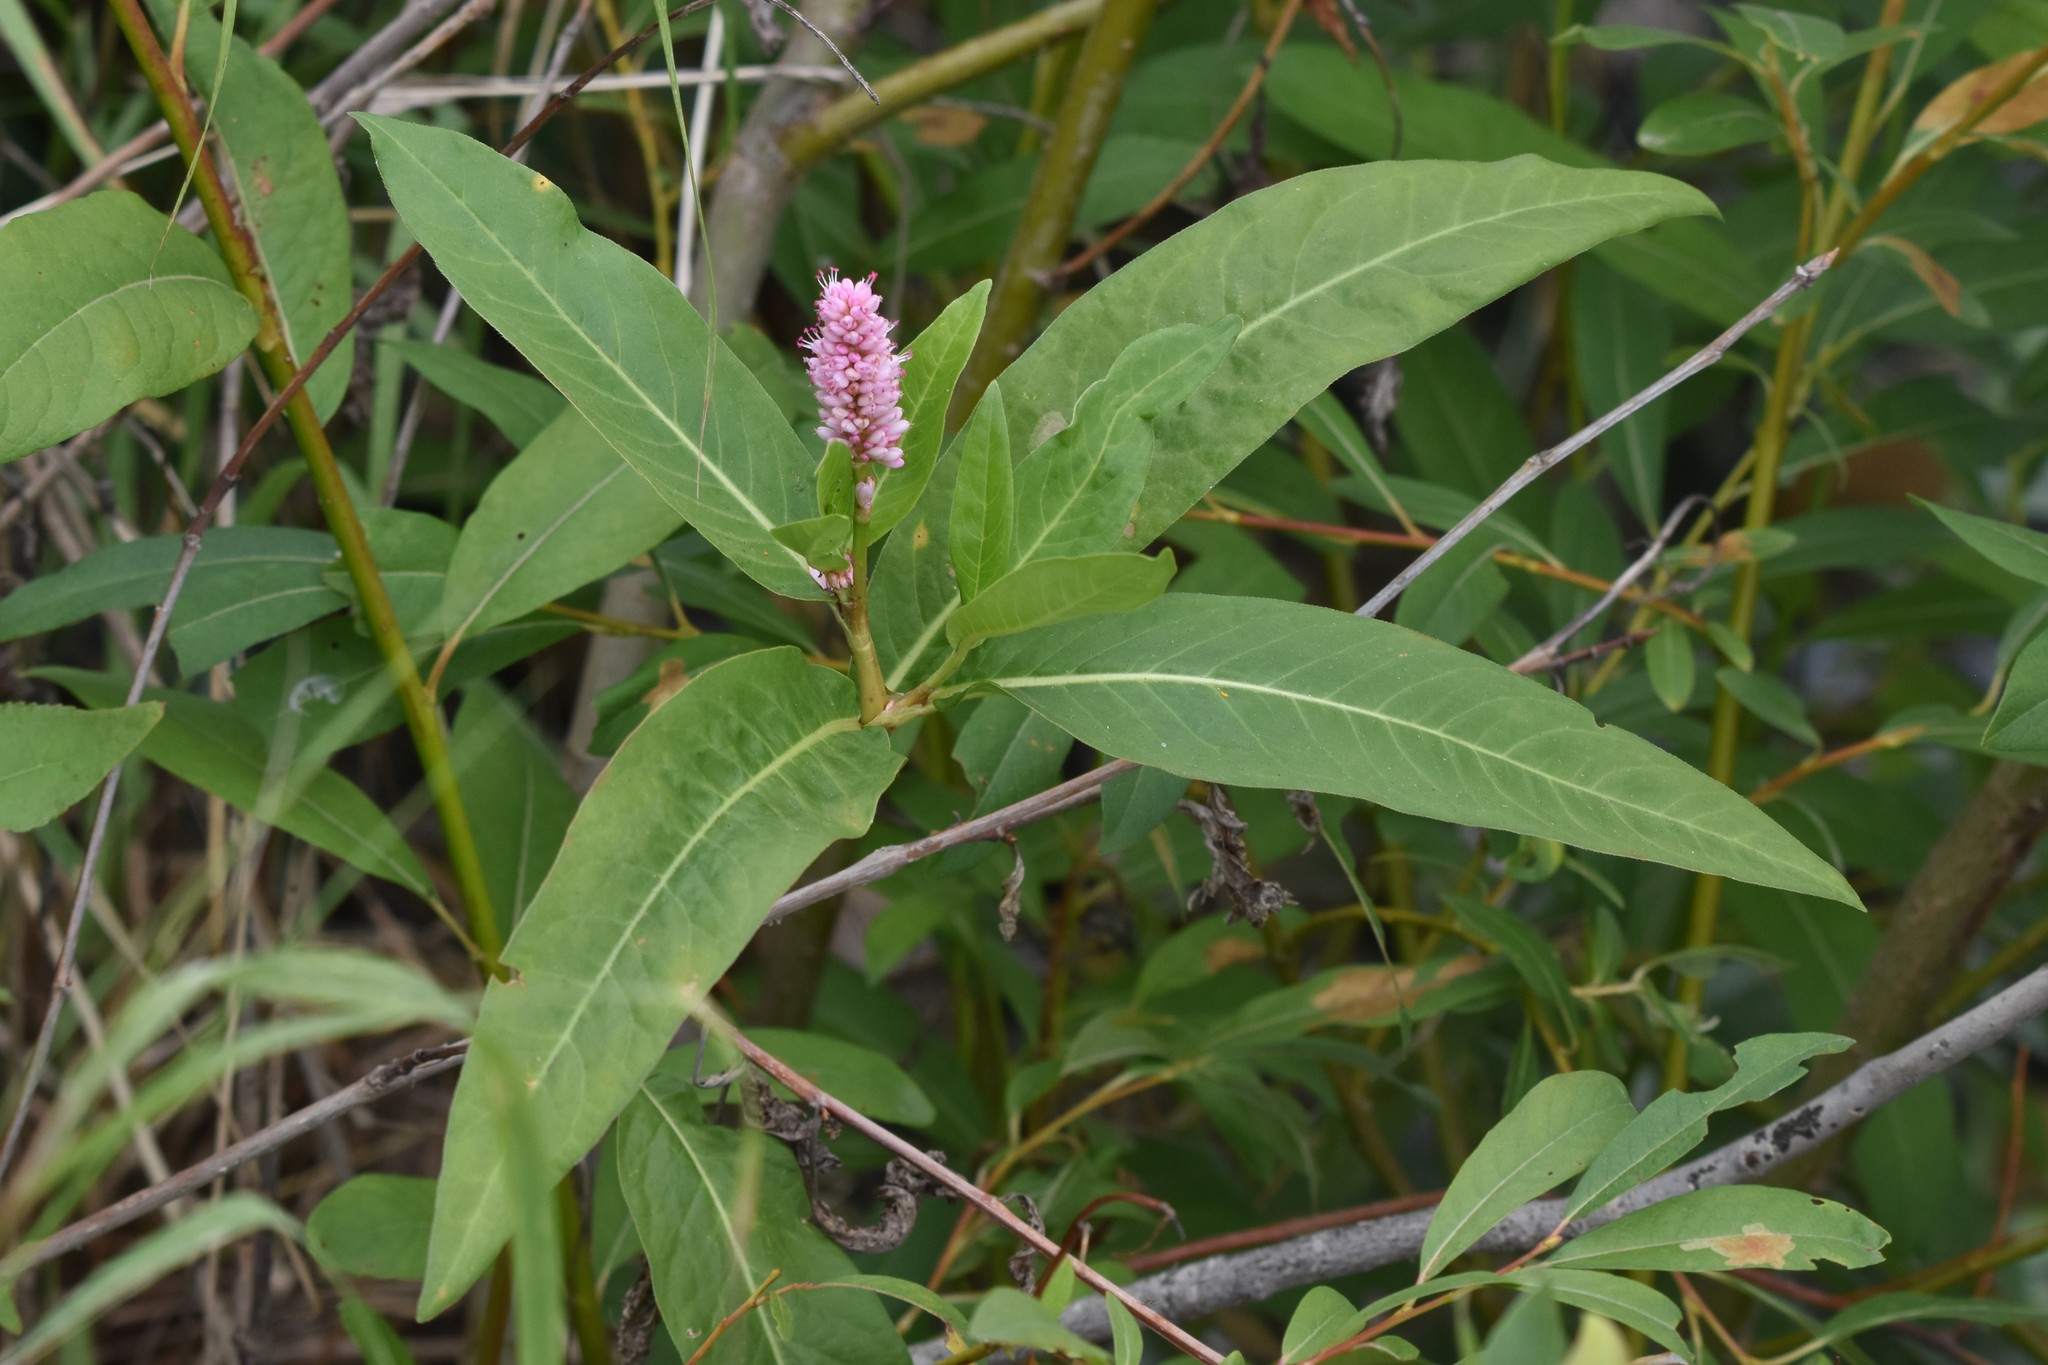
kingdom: Plantae
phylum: Tracheophyta
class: Magnoliopsida
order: Caryophyllales
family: Polygonaceae
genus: Persicaria
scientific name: Persicaria amphibia
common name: Amphibious bistort
